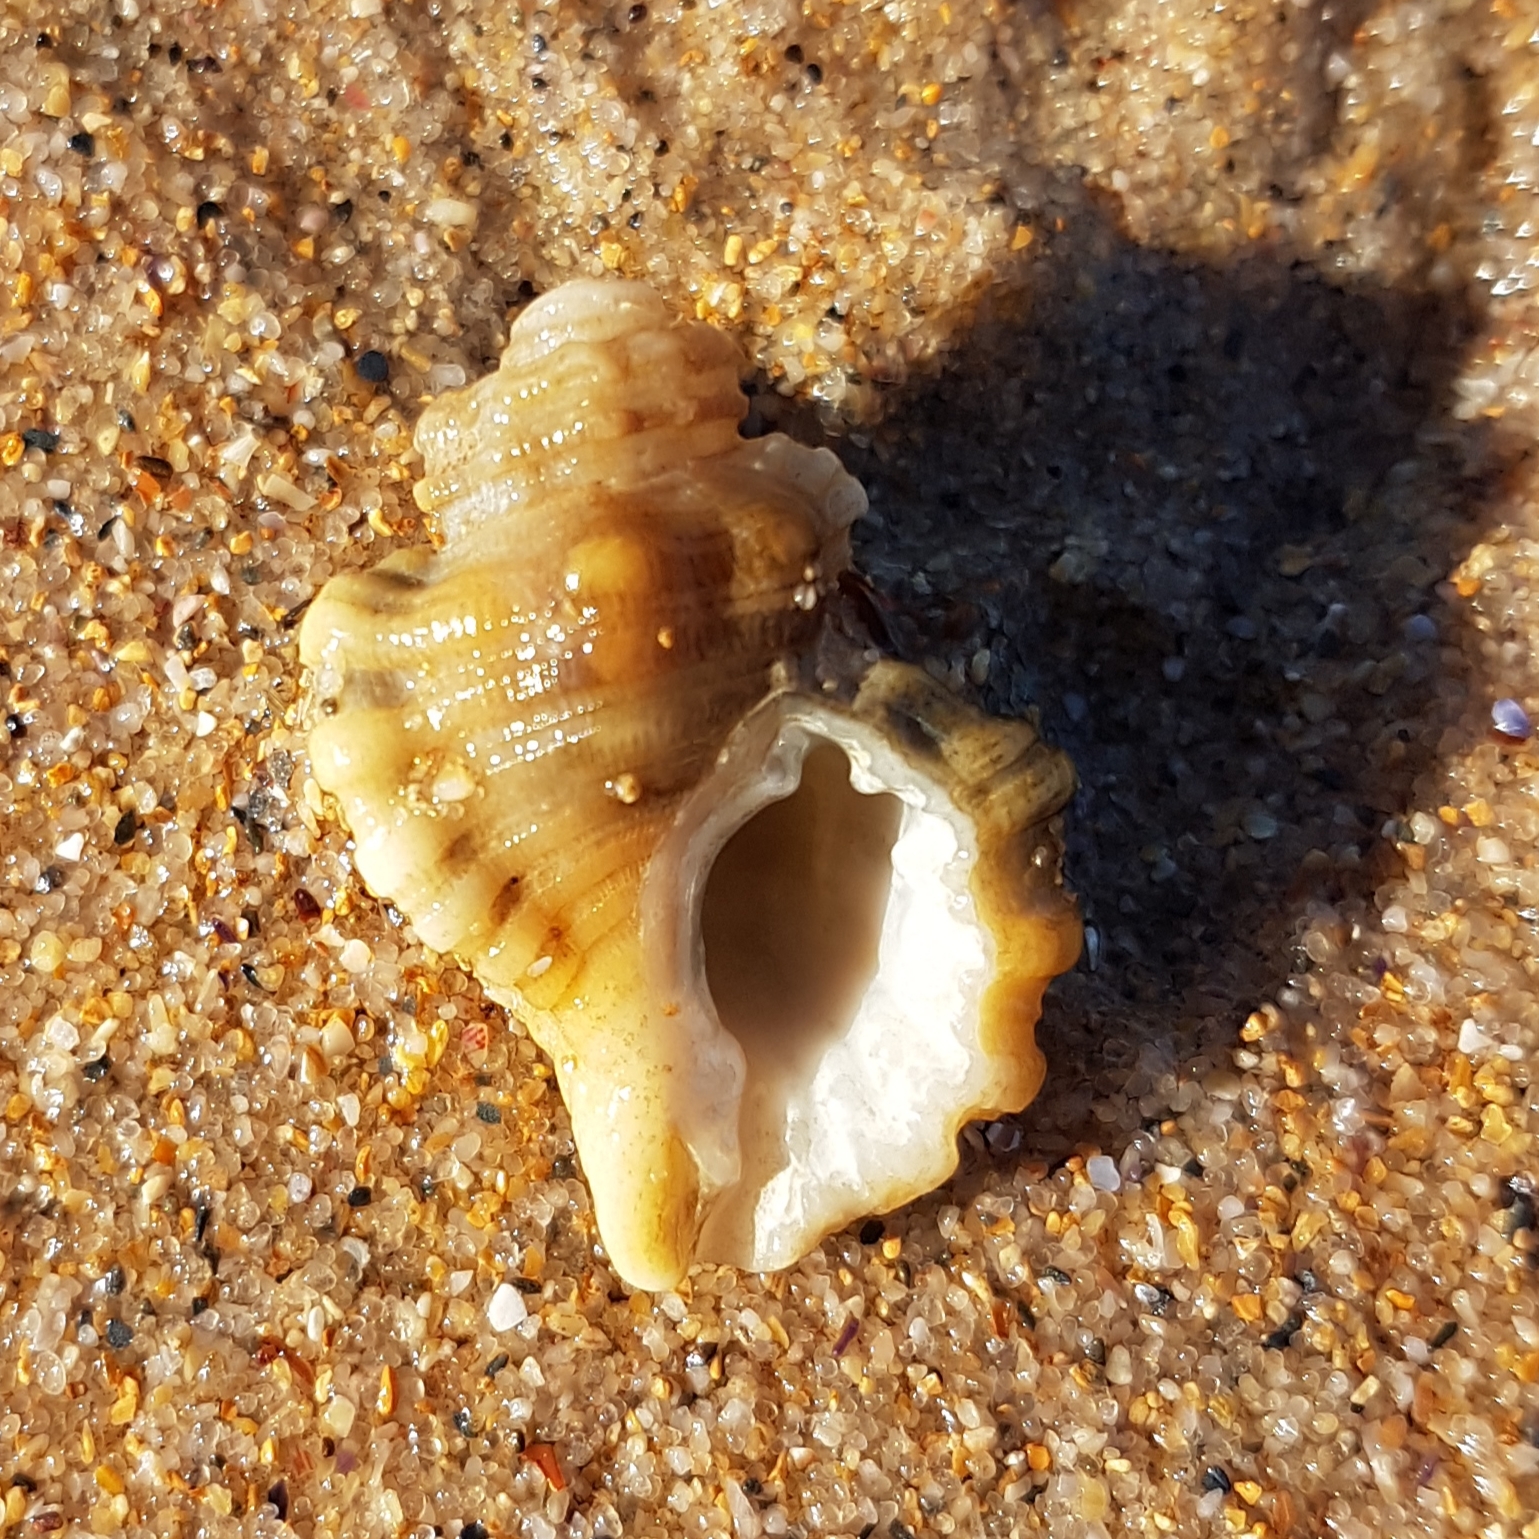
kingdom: Animalia
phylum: Mollusca
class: Gastropoda
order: Littorinimorpha
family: Cymatiidae
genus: Cabestana
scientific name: Cabestana cutacea
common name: Mediterranean bark triton
